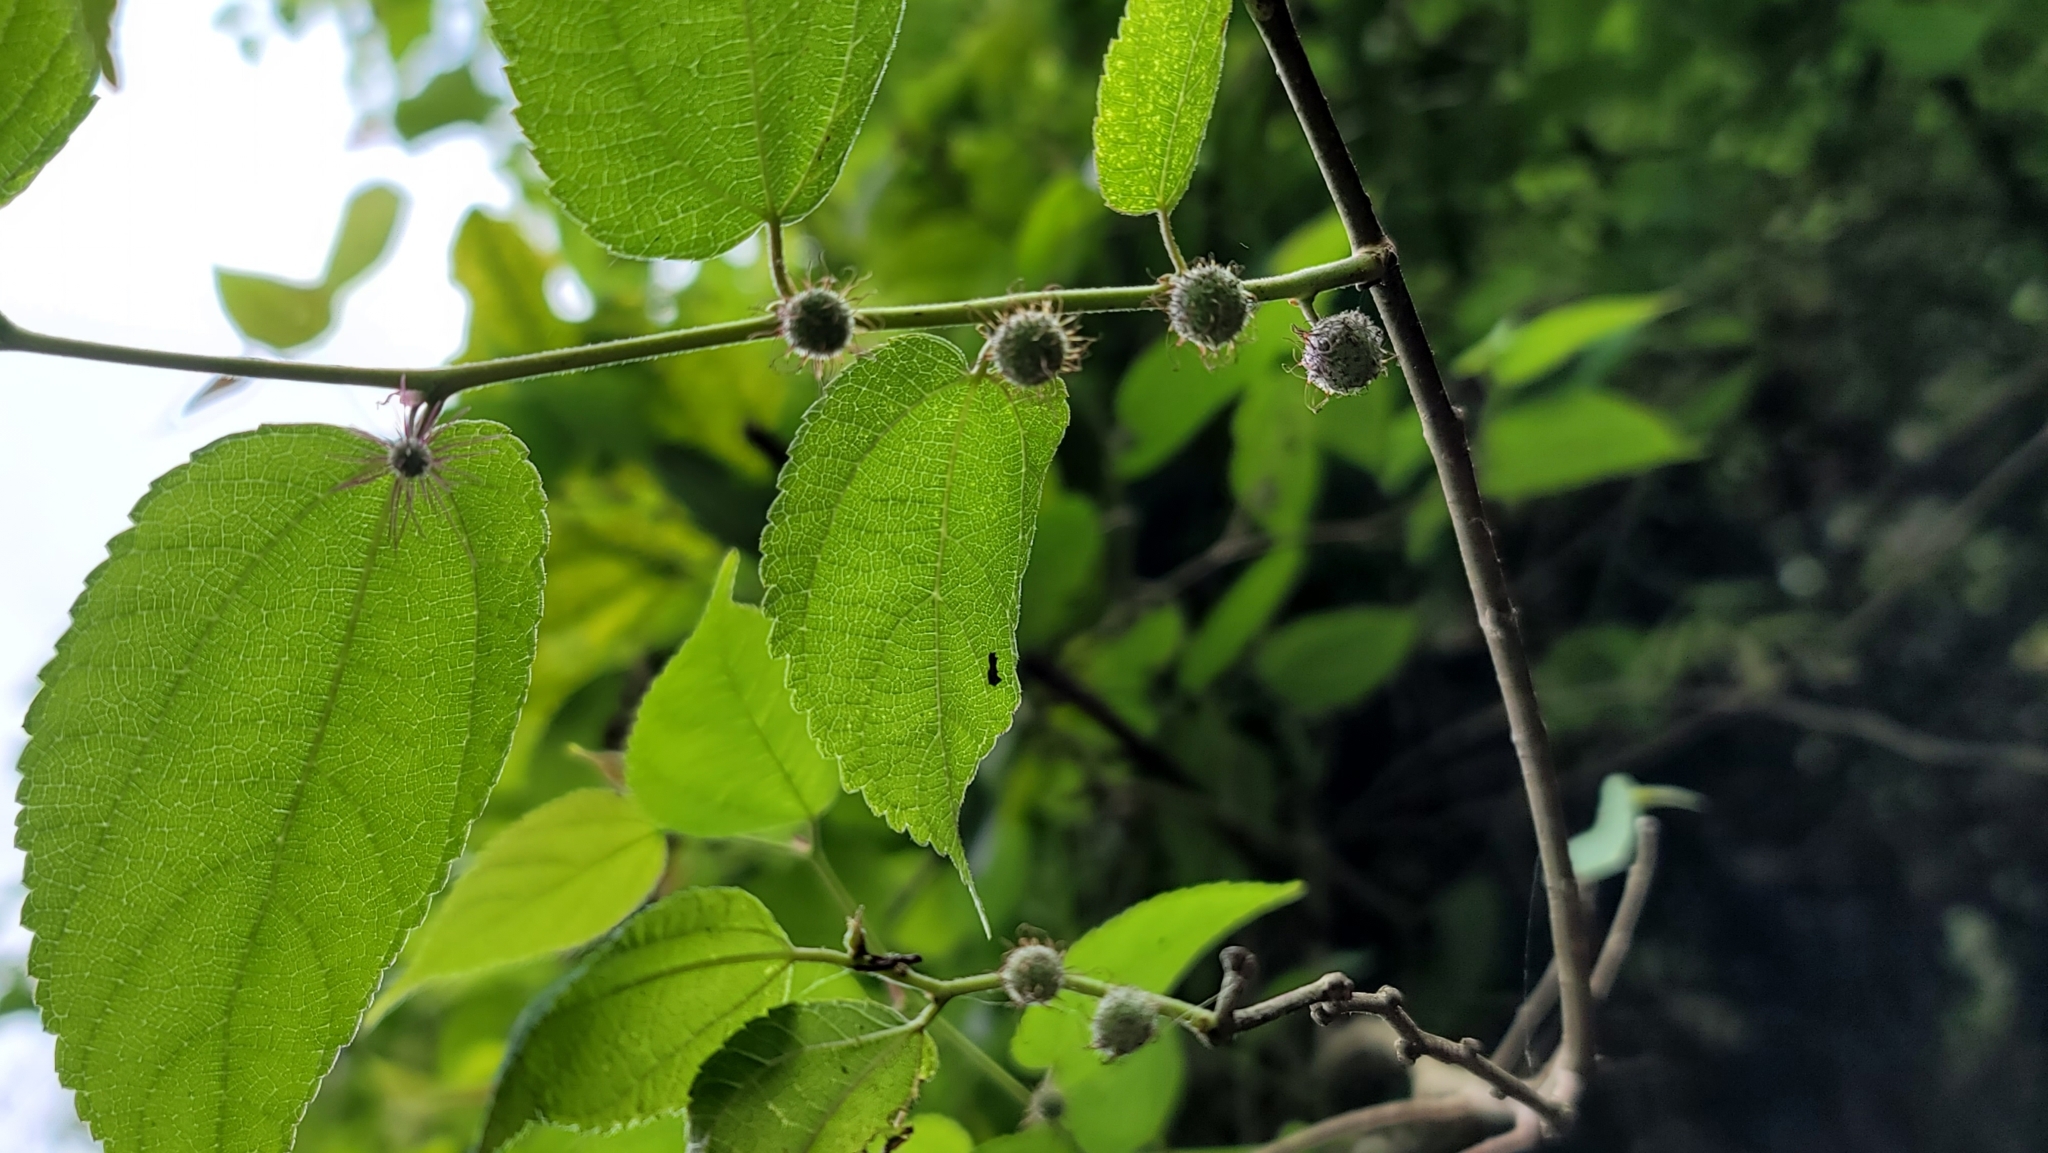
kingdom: Plantae
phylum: Tracheophyta
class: Magnoliopsida
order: Rosales
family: Moraceae
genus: Broussonetia
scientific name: Broussonetia monoica
